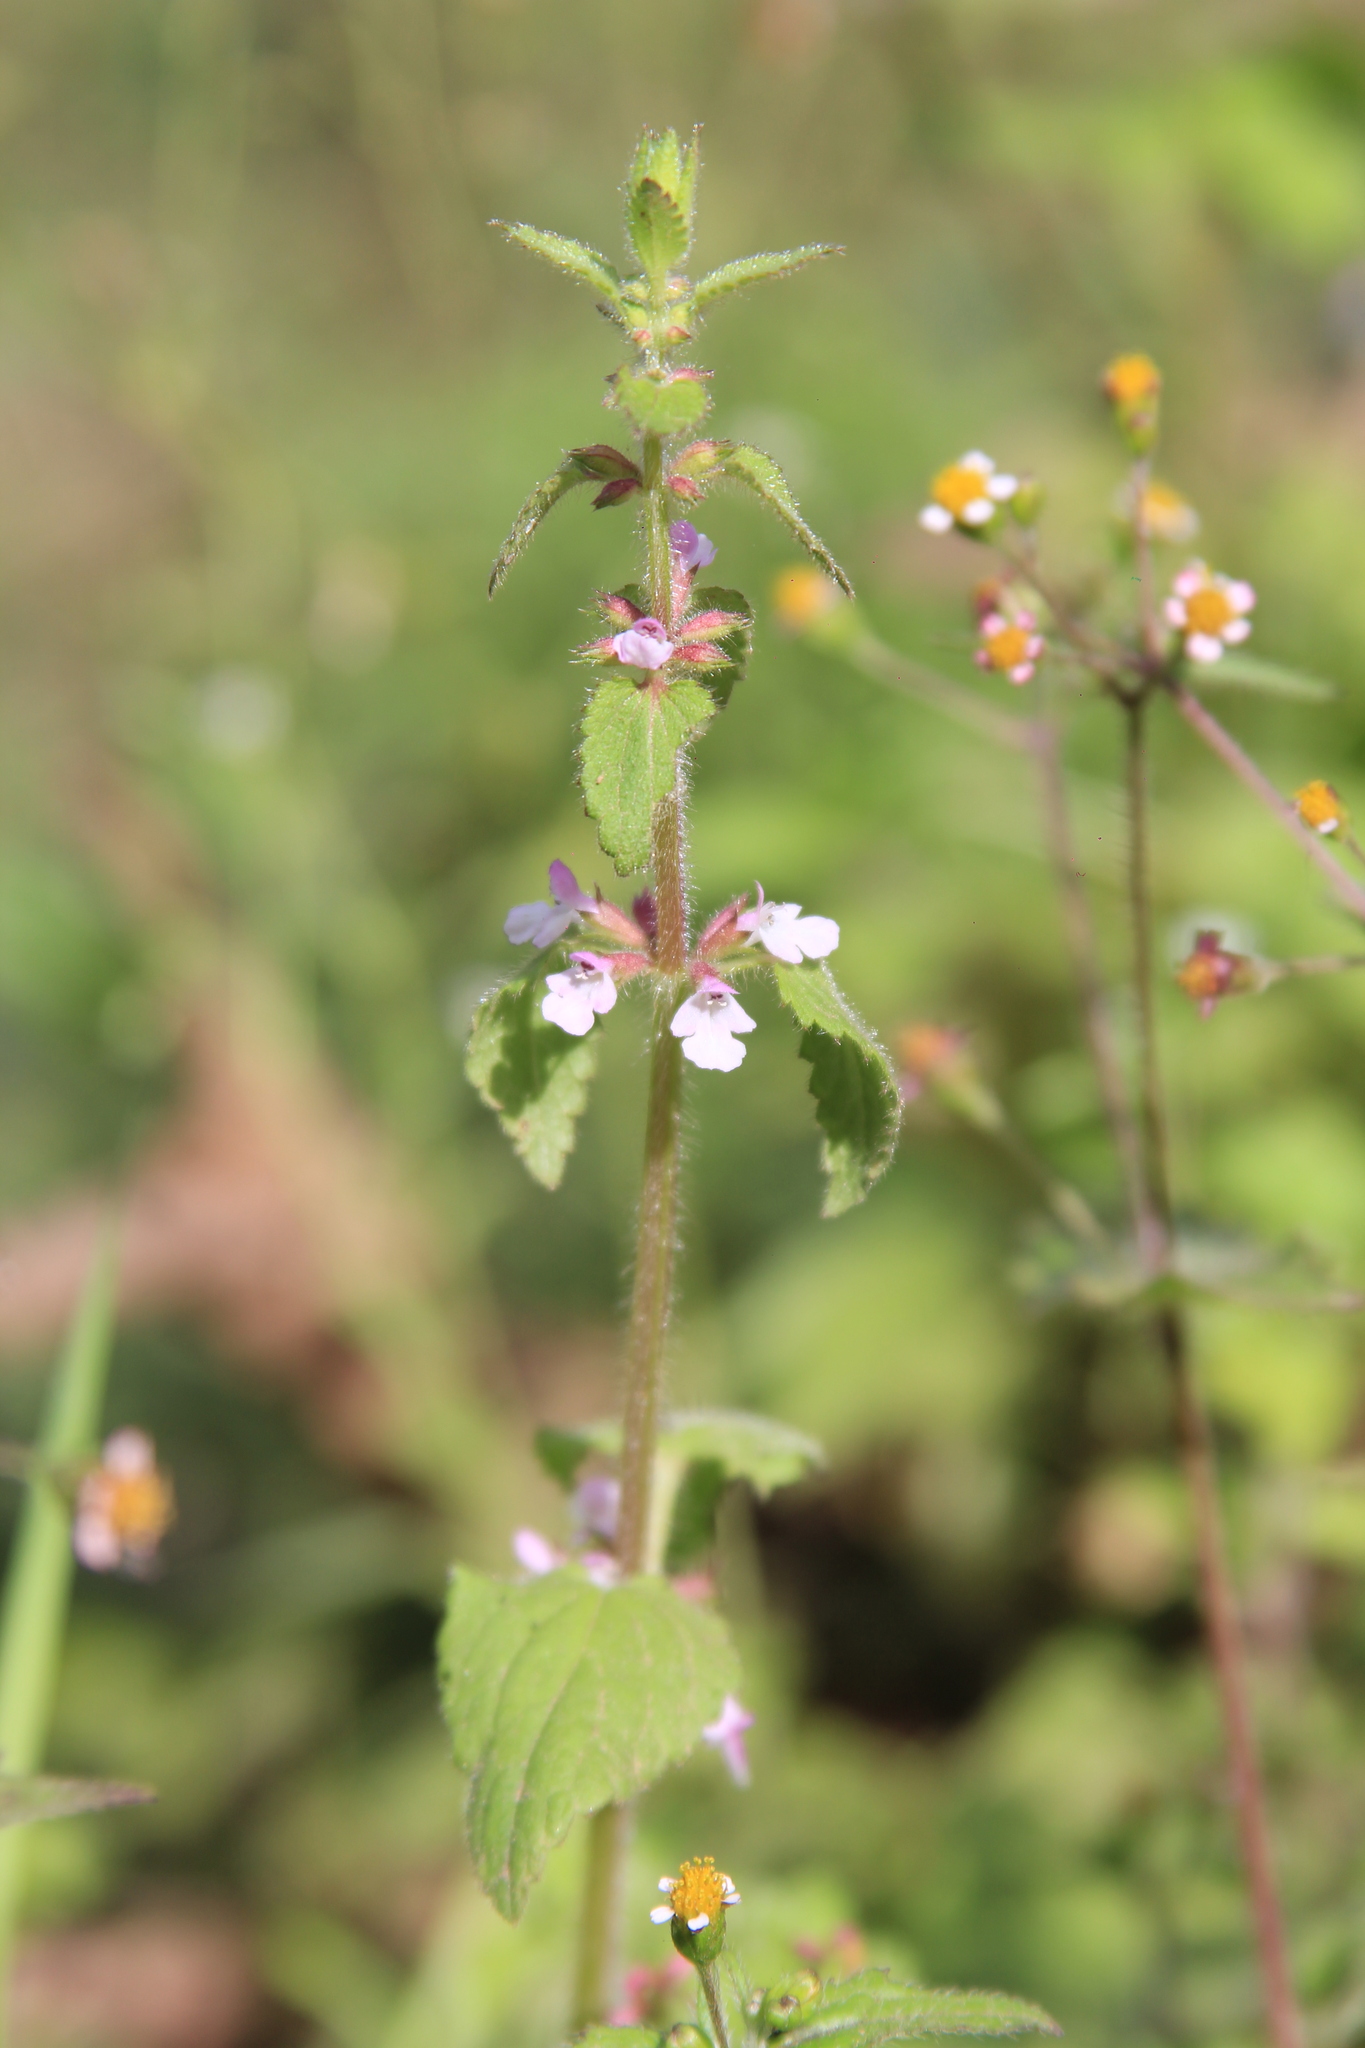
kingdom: Plantae
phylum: Tracheophyta
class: Magnoliopsida
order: Lamiales
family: Lamiaceae
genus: Stachys
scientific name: Stachys gilliesii
